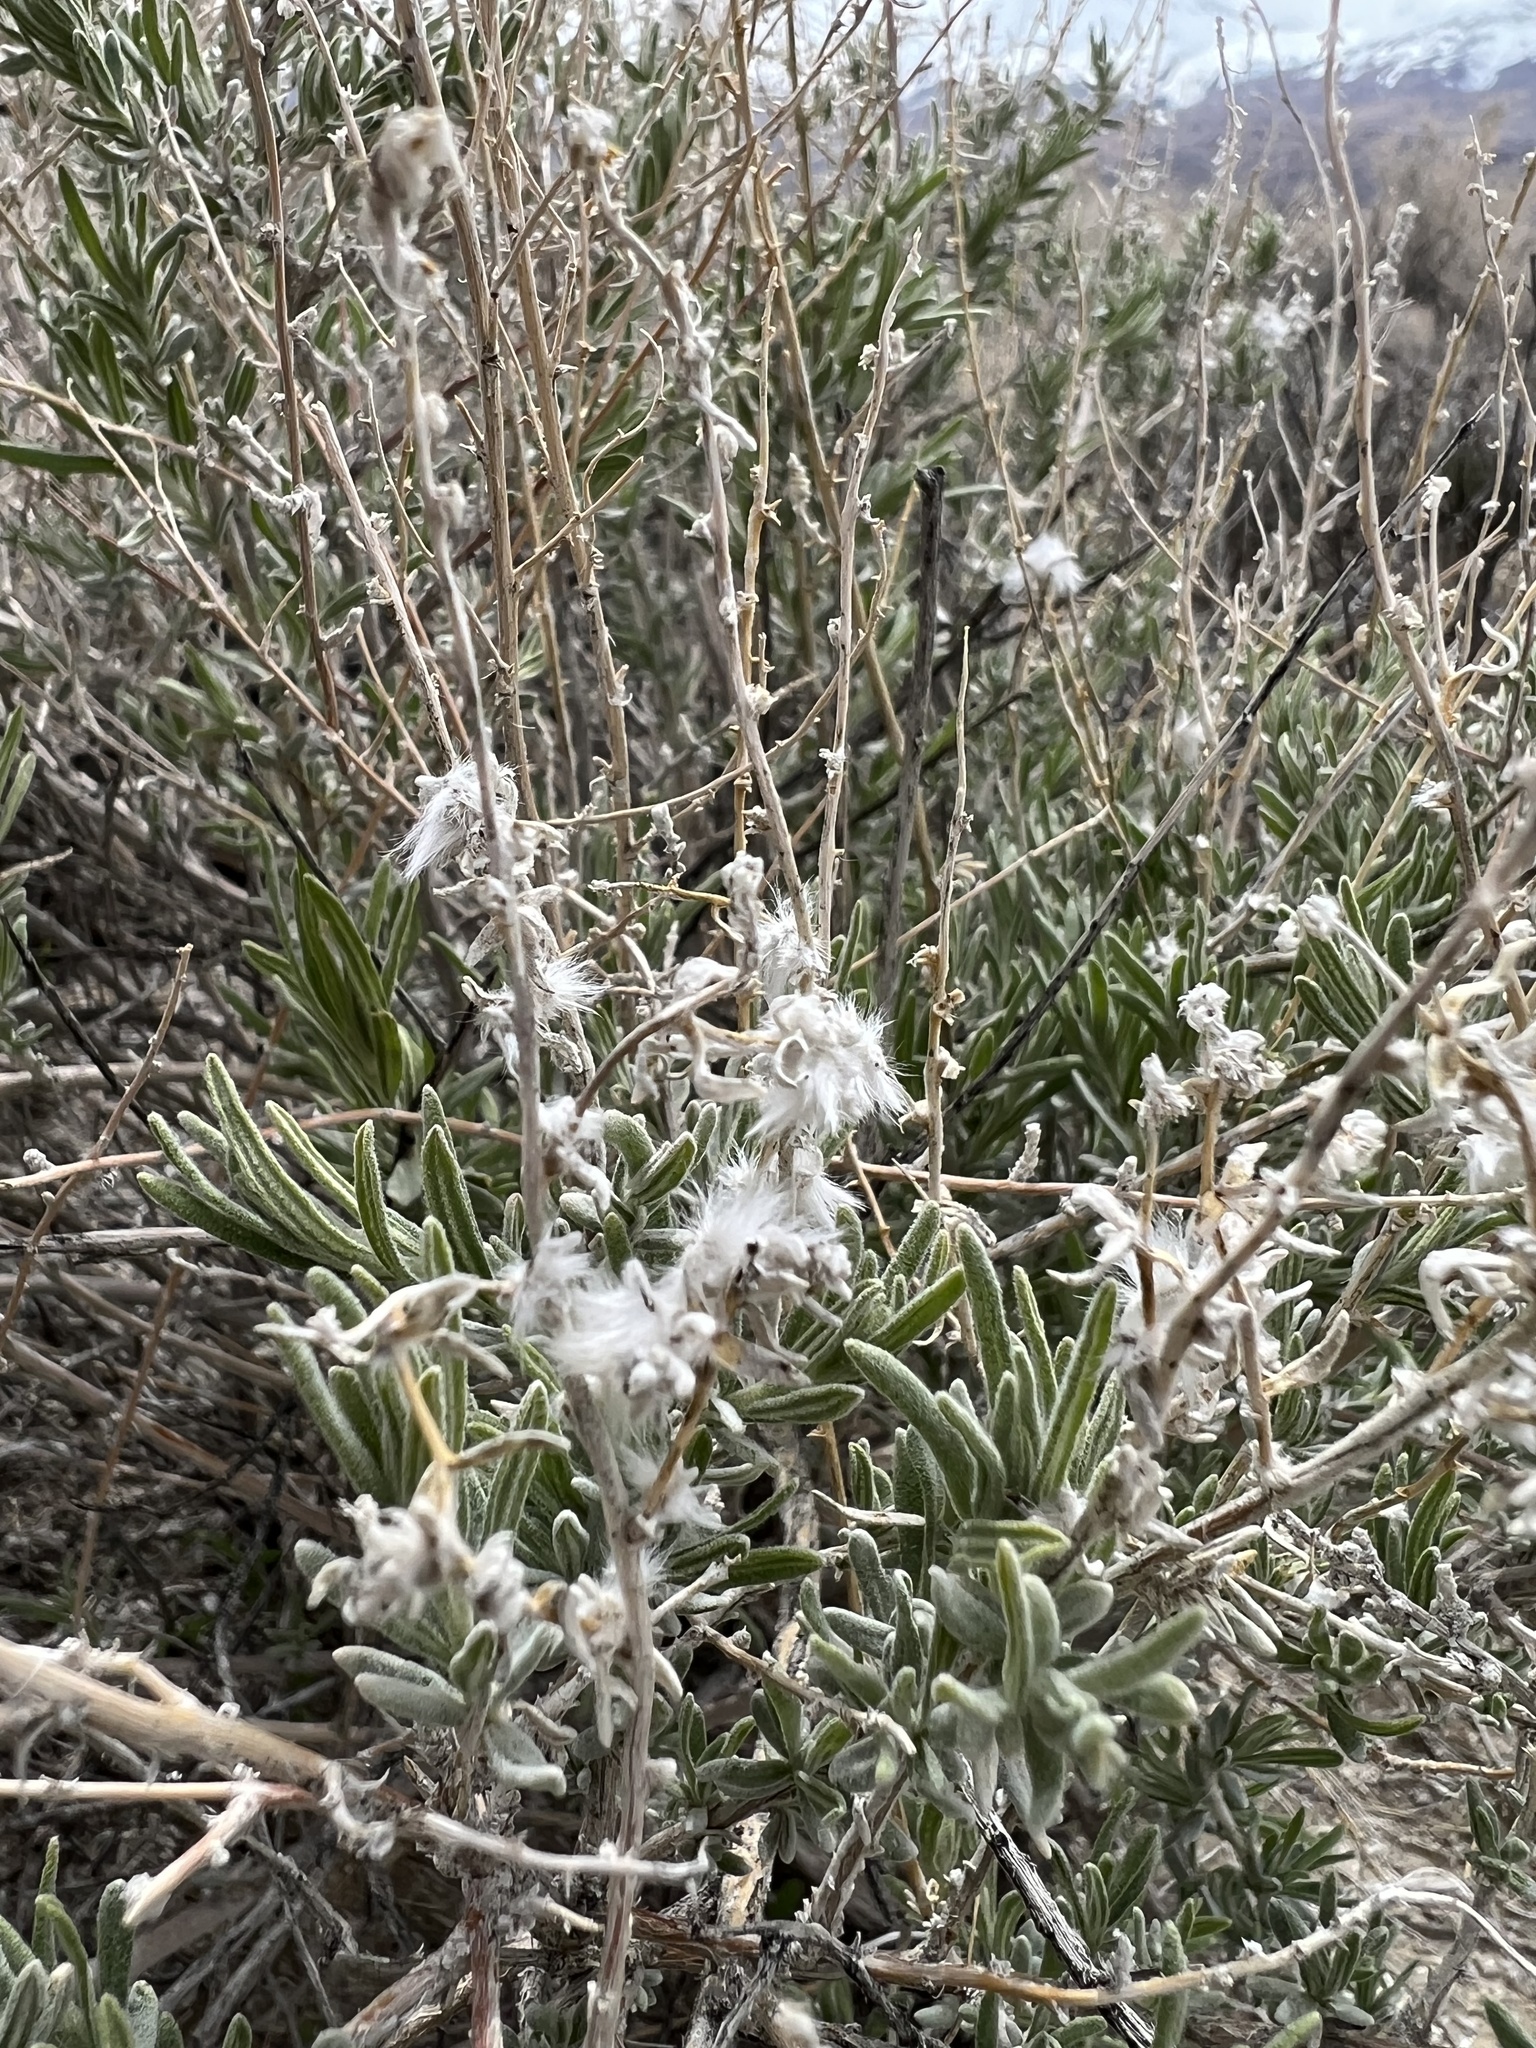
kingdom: Plantae
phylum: Tracheophyta
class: Magnoliopsida
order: Caryophyllales
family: Amaranthaceae
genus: Krascheninnikovia
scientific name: Krascheninnikovia lanata
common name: Winterfat
